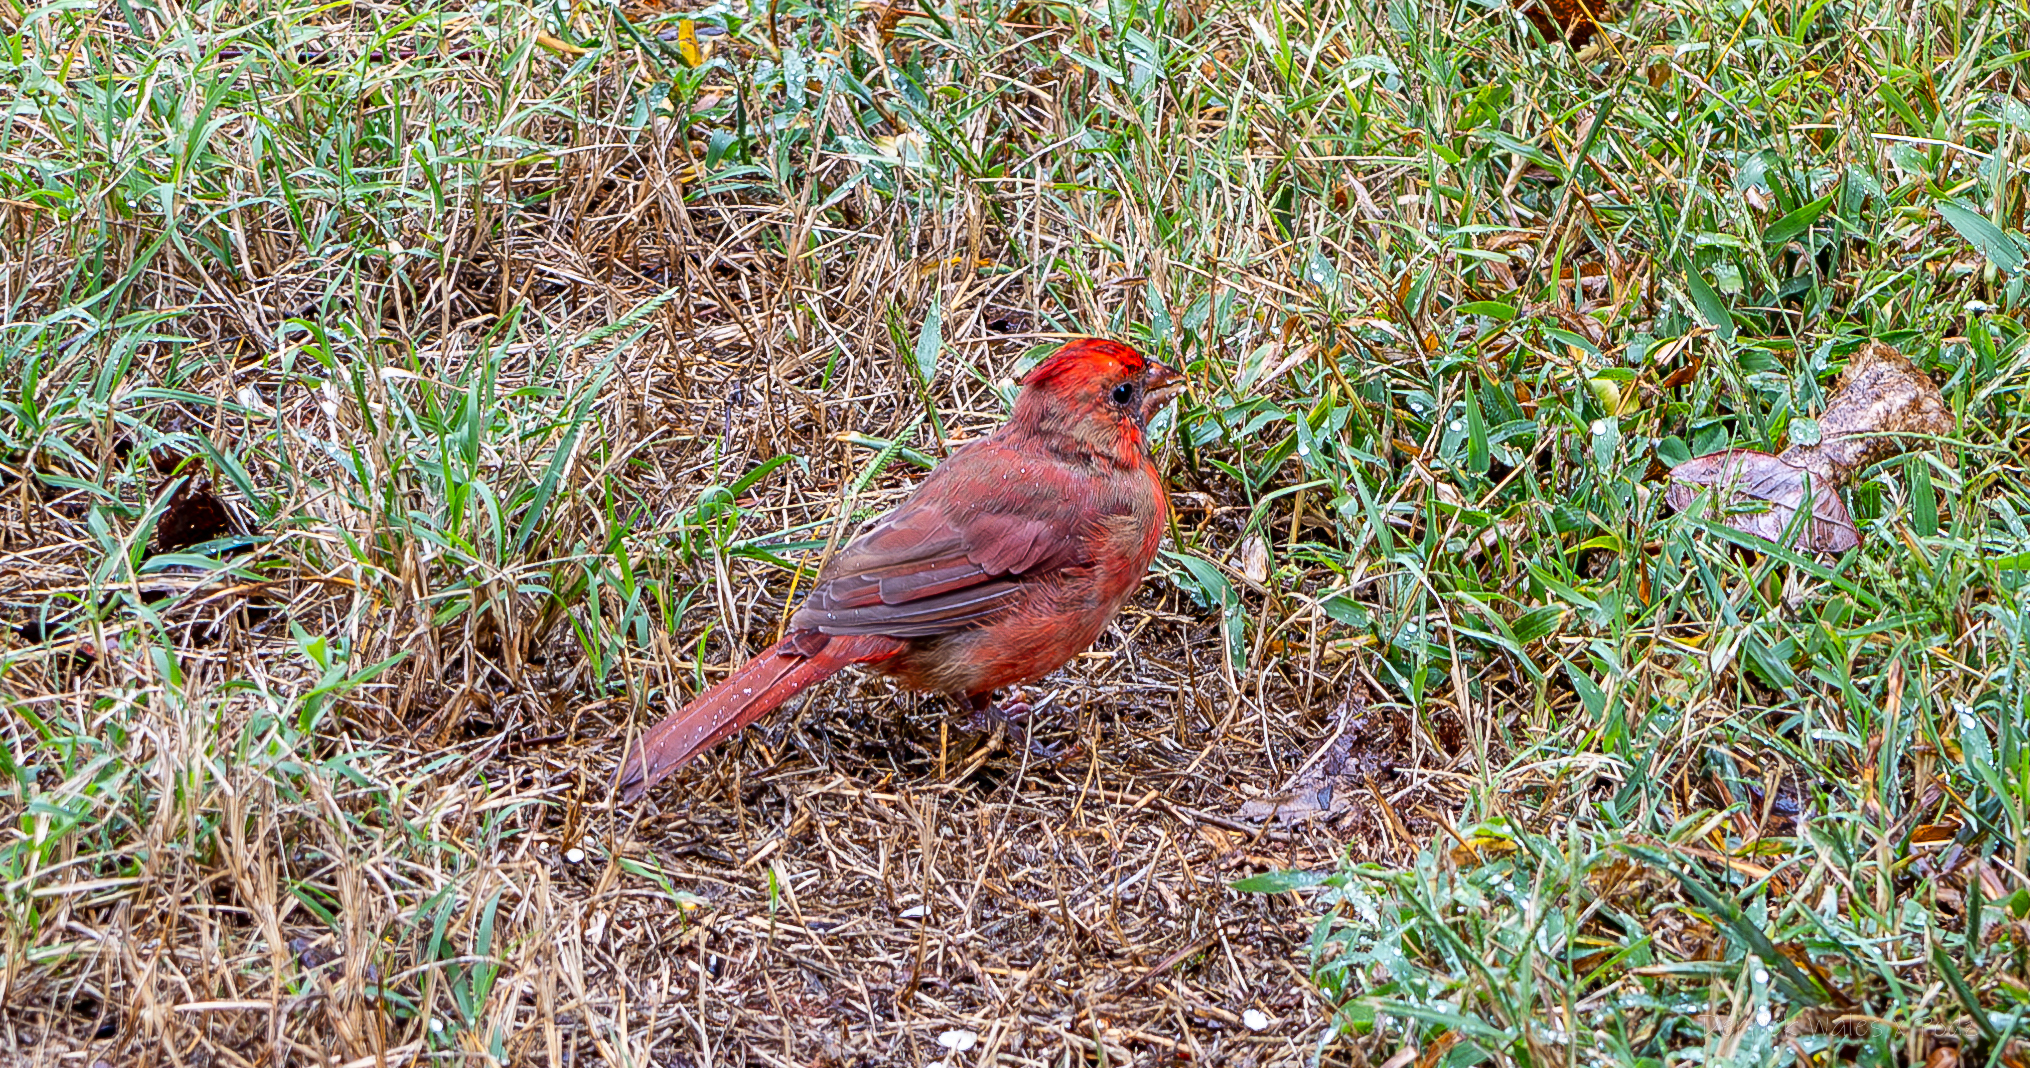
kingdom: Animalia
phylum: Chordata
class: Aves
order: Passeriformes
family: Cardinalidae
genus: Cardinalis
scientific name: Cardinalis cardinalis
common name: Northern cardinal
